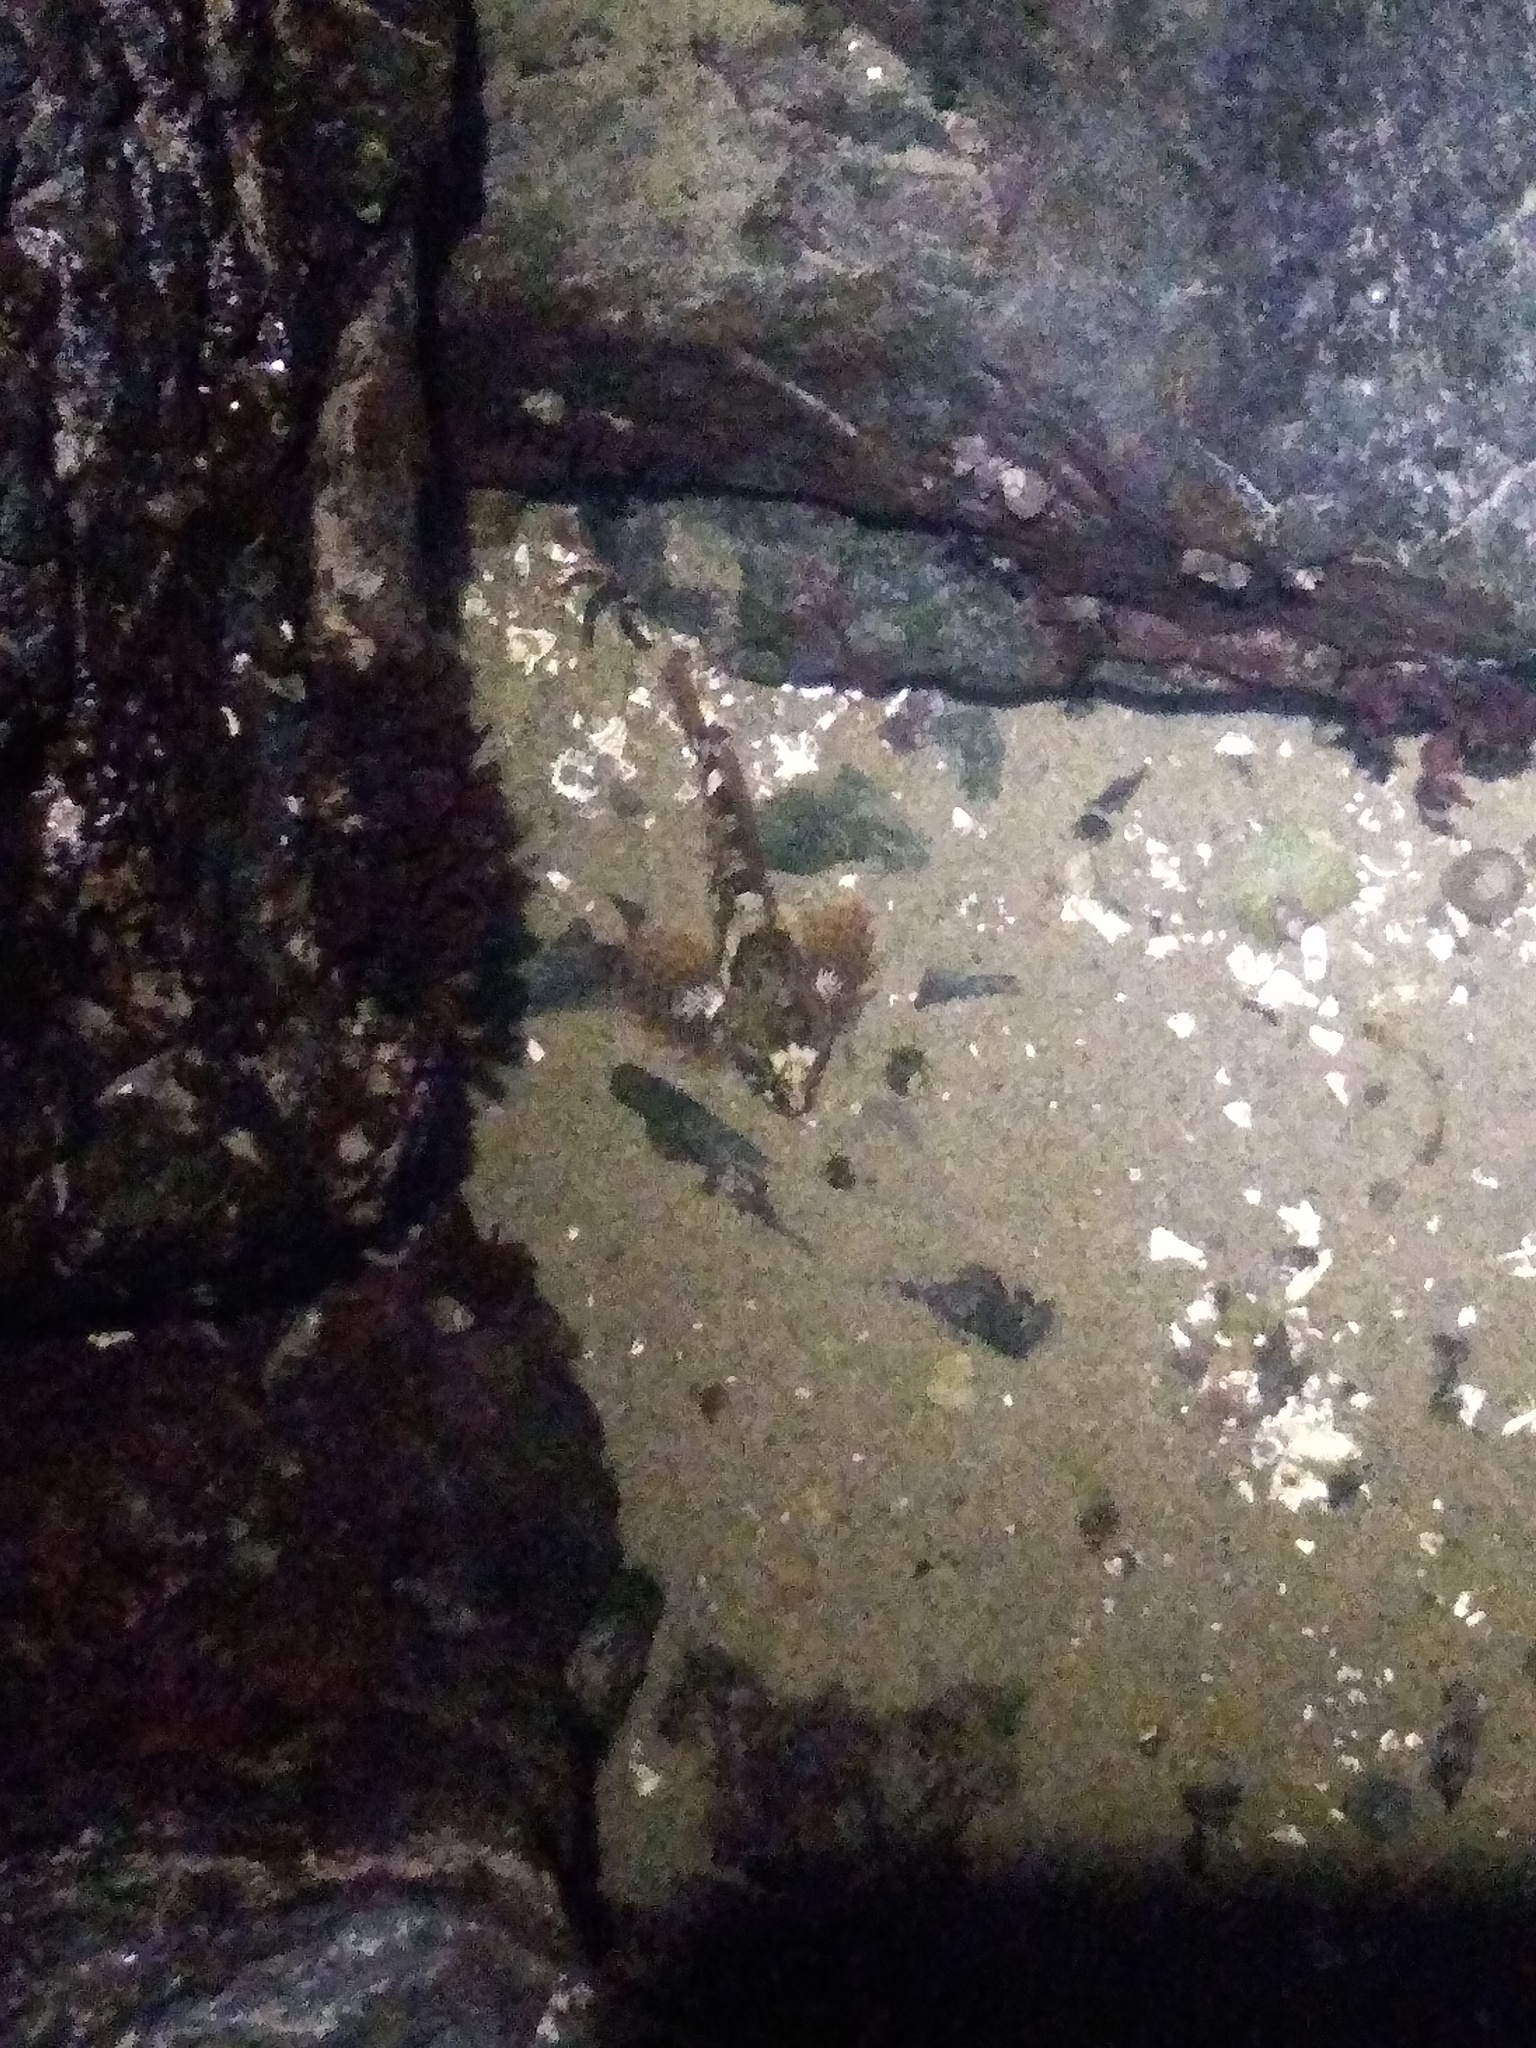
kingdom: Animalia
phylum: Chordata
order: Scorpaeniformes
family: Cottidae
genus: Oligocottus
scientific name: Oligocottus maculosus
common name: Tidepool sculpin
